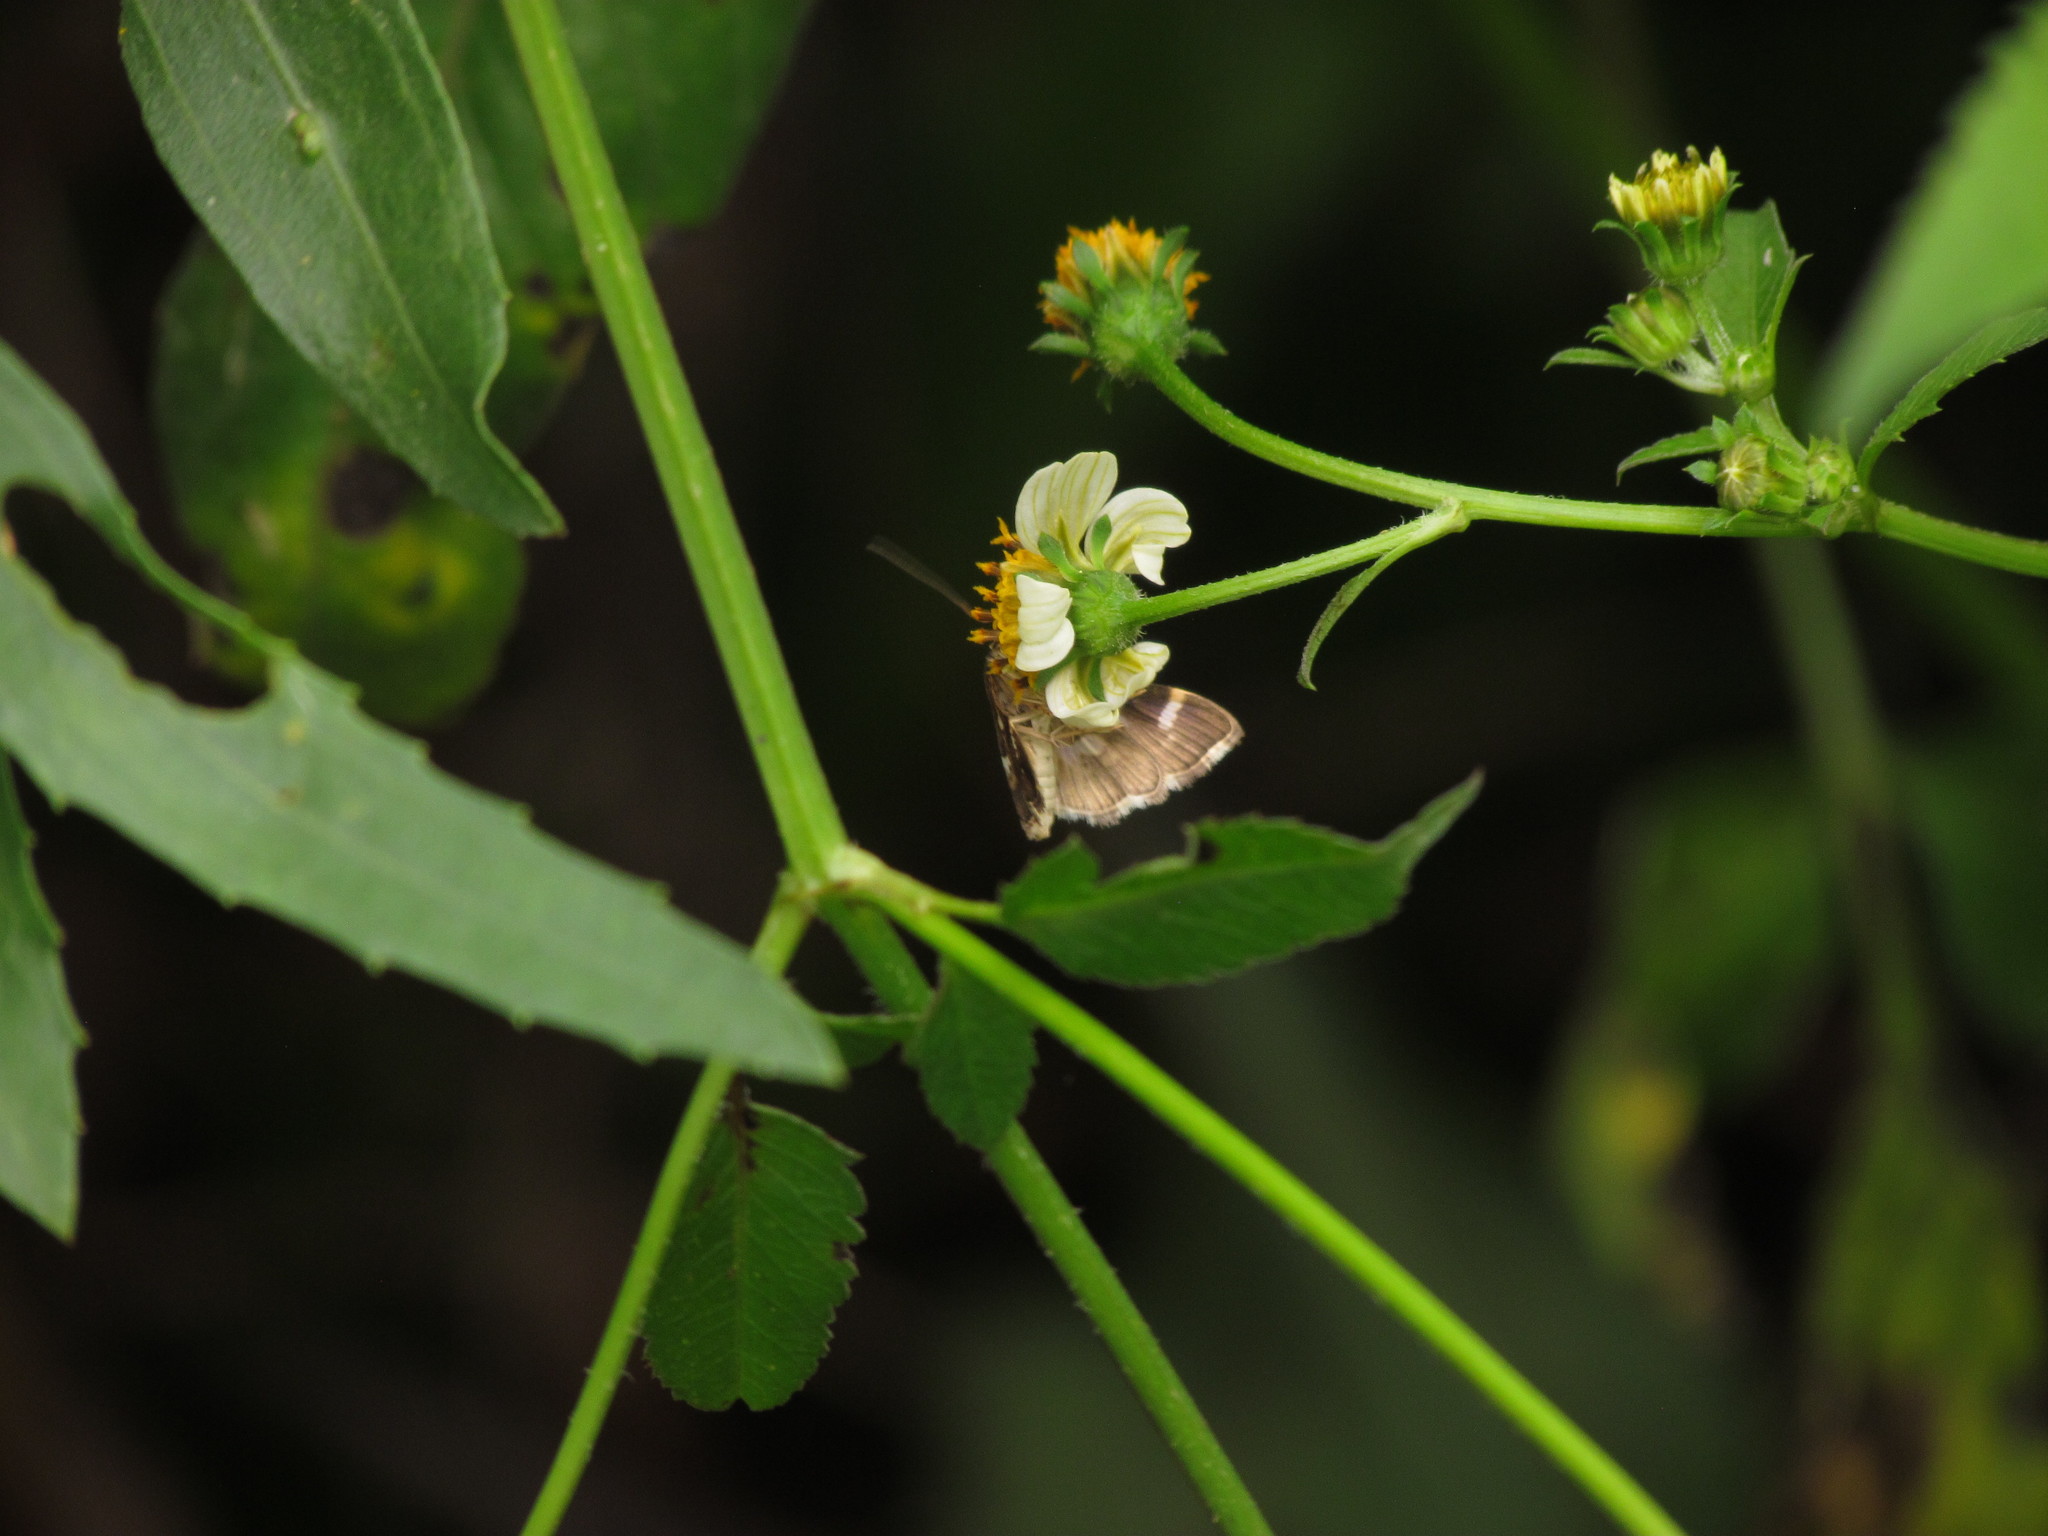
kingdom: Animalia
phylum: Arthropoda
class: Insecta
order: Lepidoptera
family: Crambidae
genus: Hymenia
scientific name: Hymenia perspectalis
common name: Spotted beet webworm
